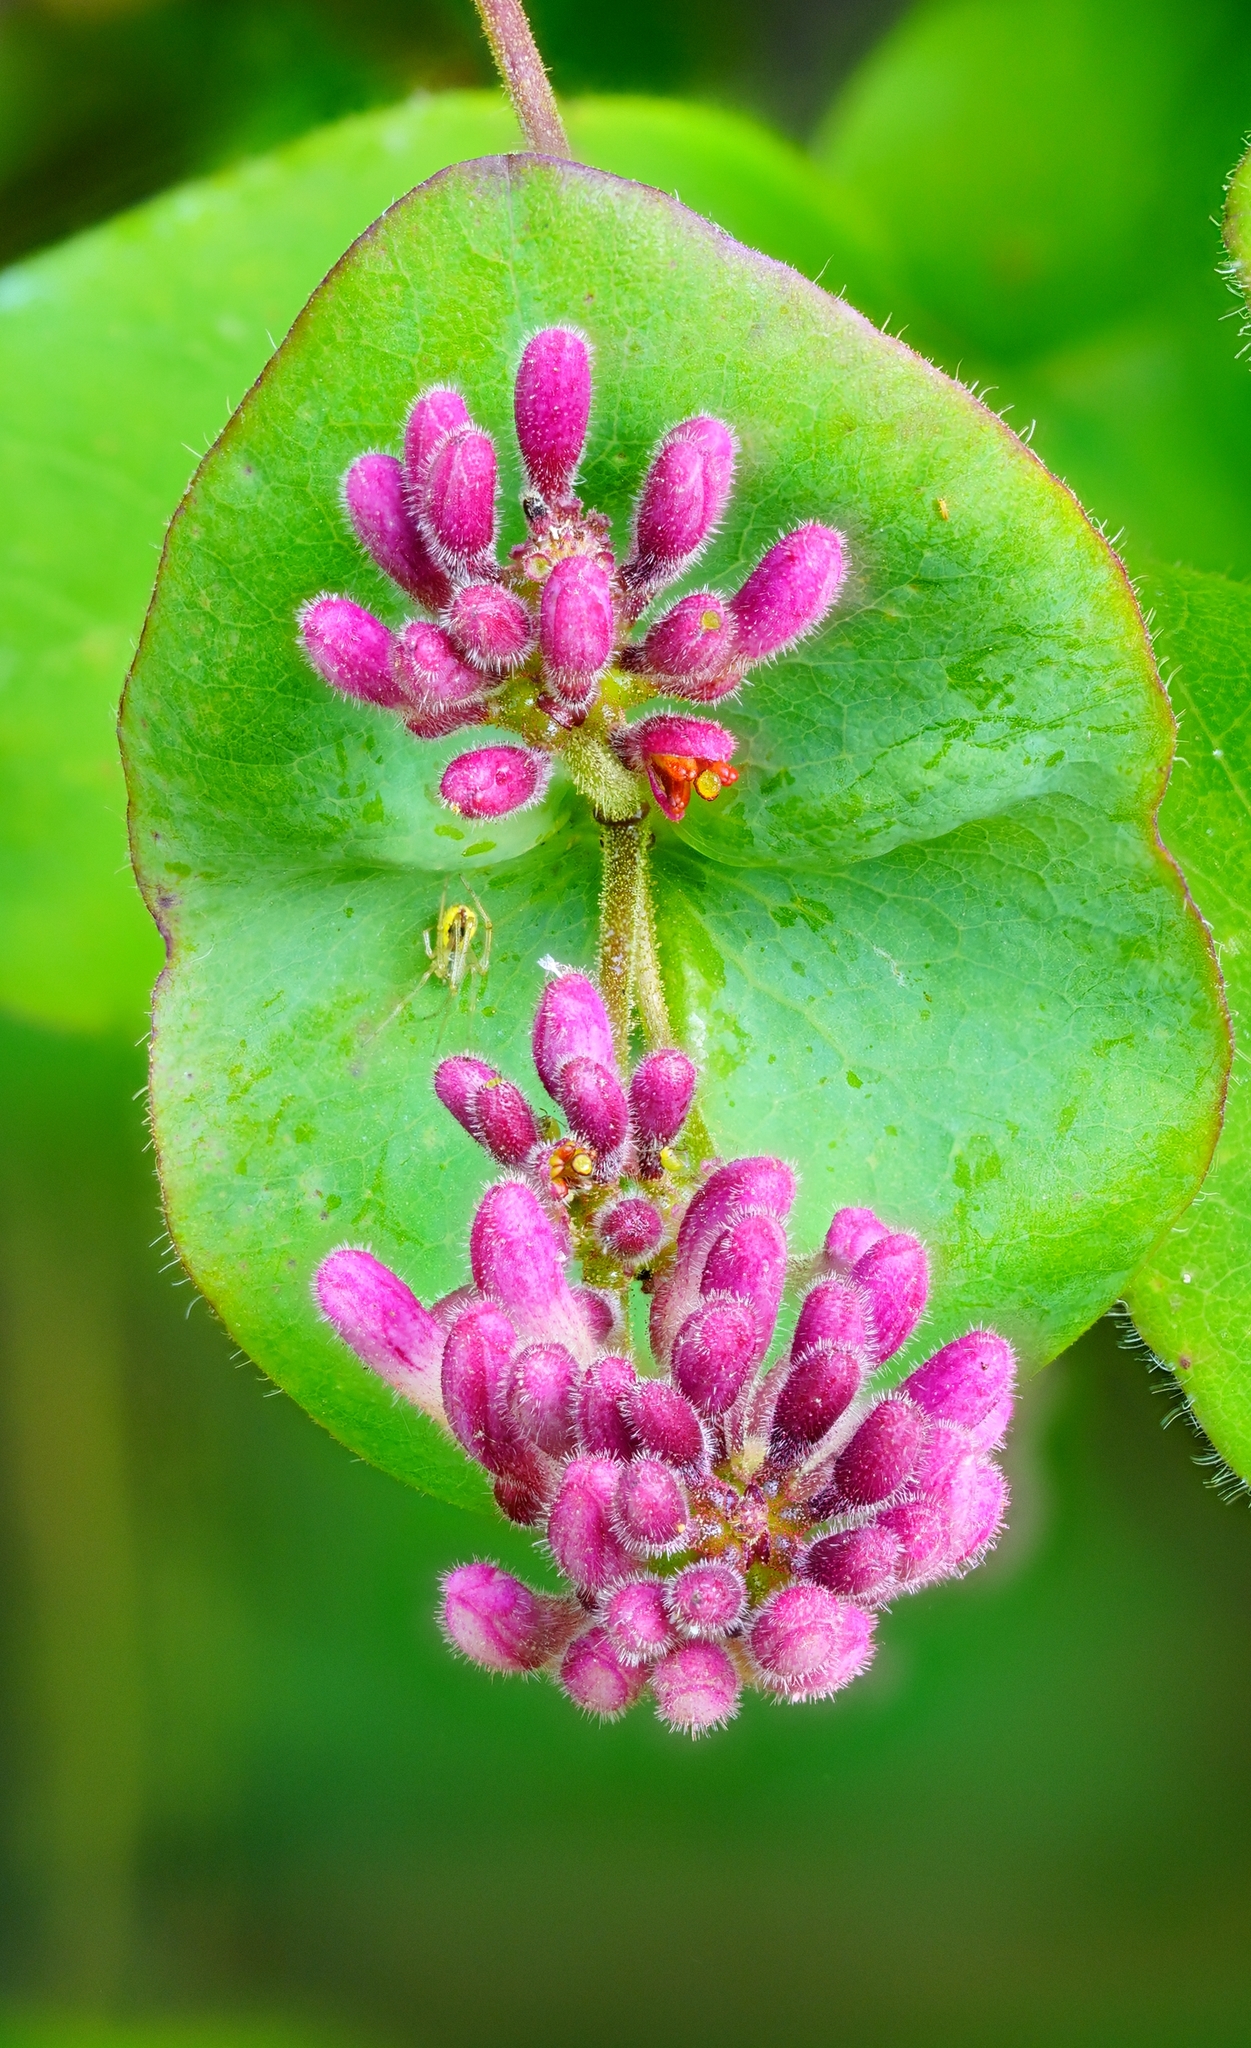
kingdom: Plantae
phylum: Tracheophyta
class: Magnoliopsida
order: Dipsacales
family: Caprifoliaceae
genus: Lonicera
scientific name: Lonicera hispidula
